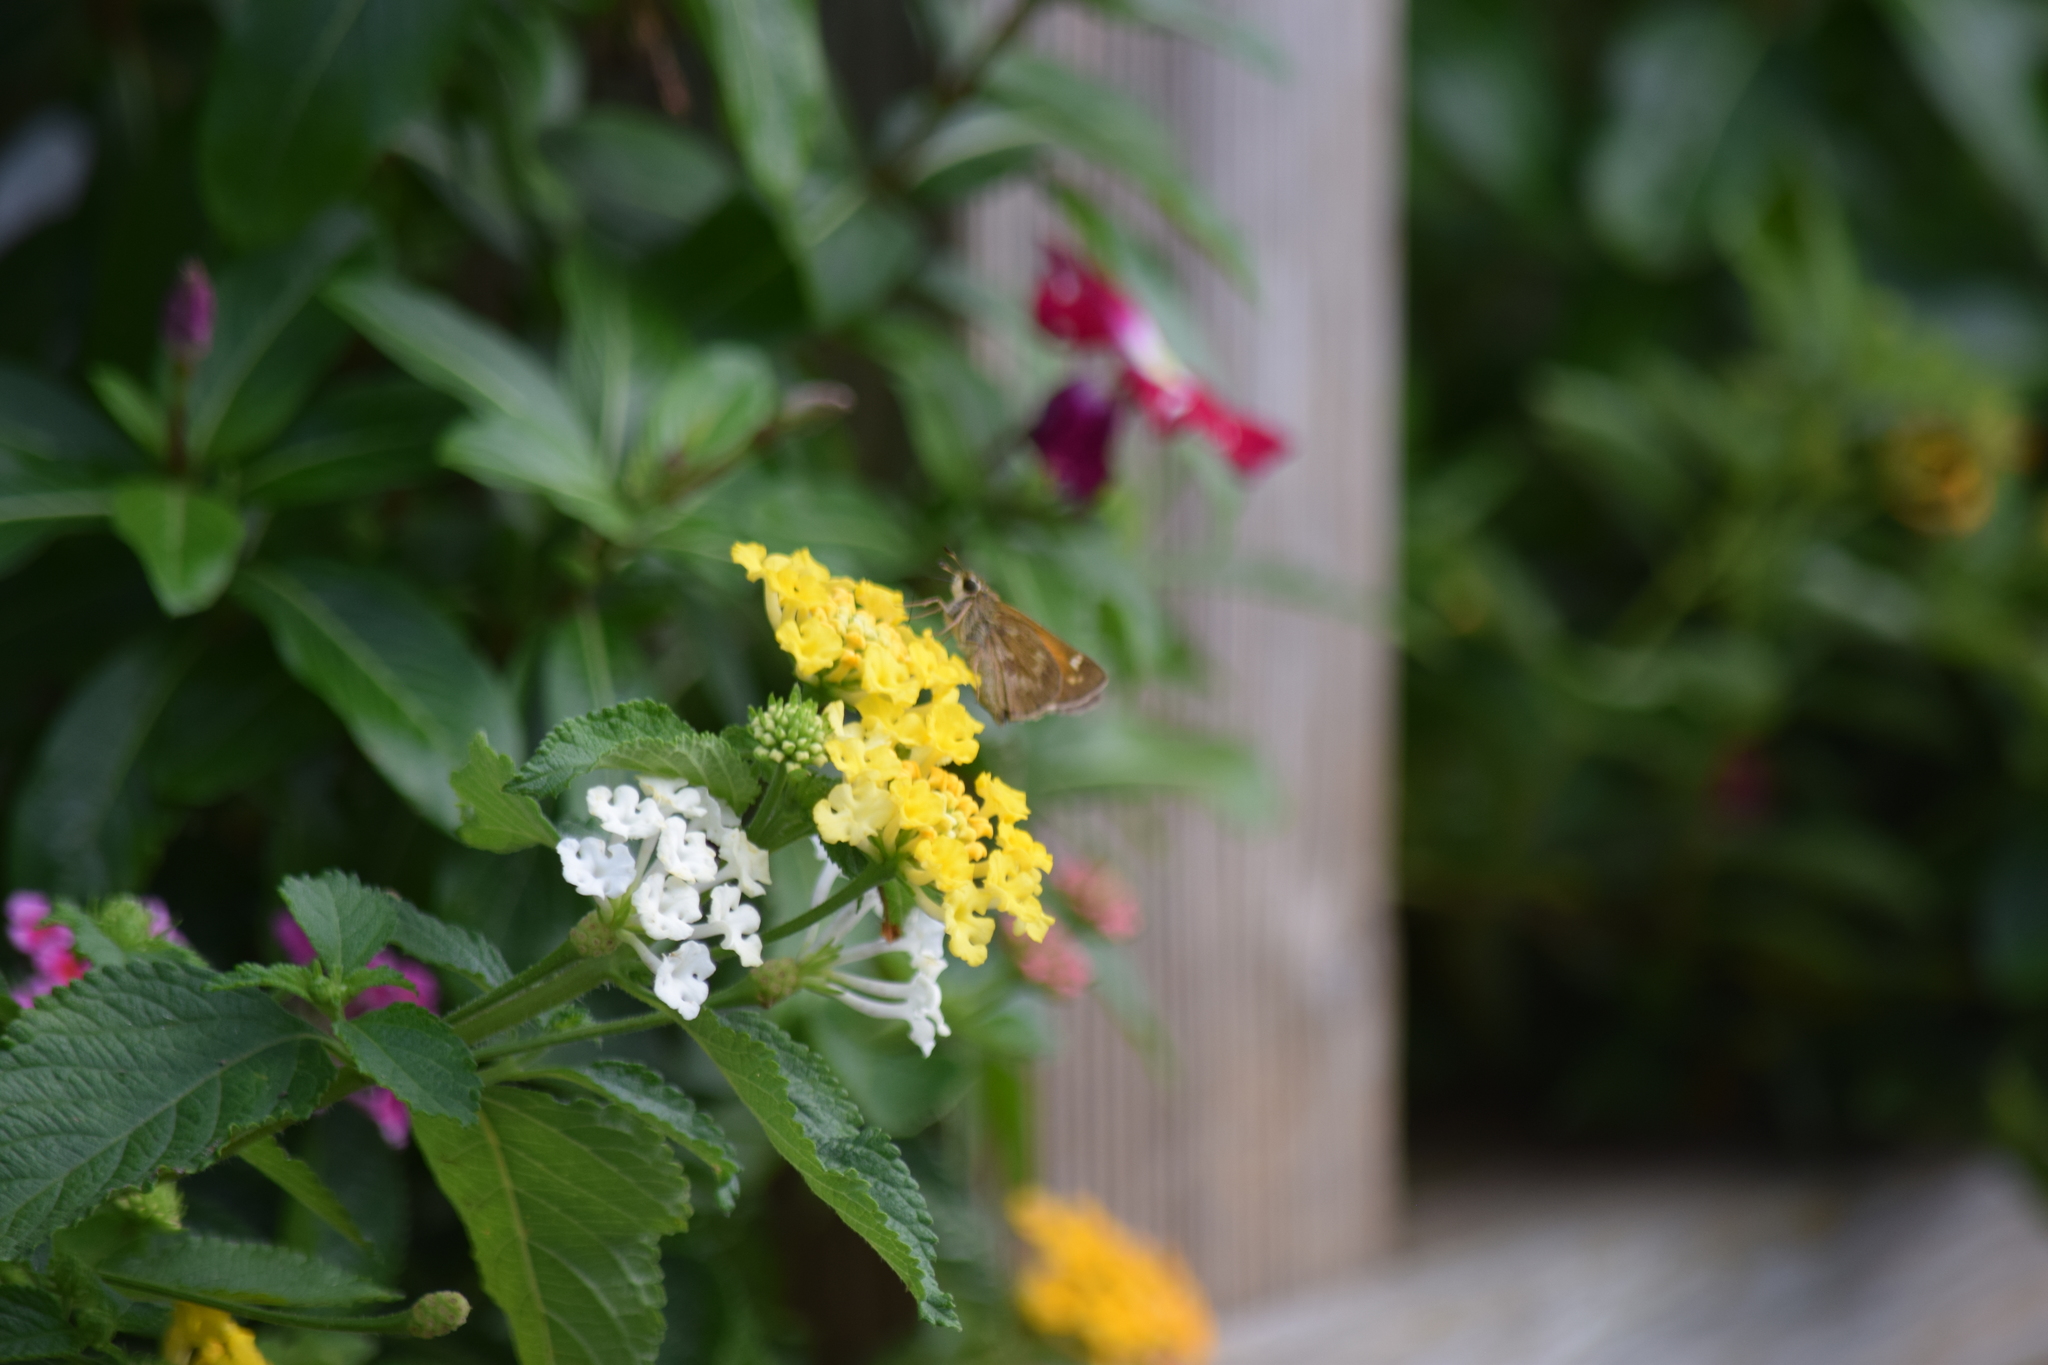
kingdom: Animalia
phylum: Arthropoda
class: Insecta
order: Lepidoptera
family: Hesperiidae
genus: Atalopedes
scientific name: Atalopedes
